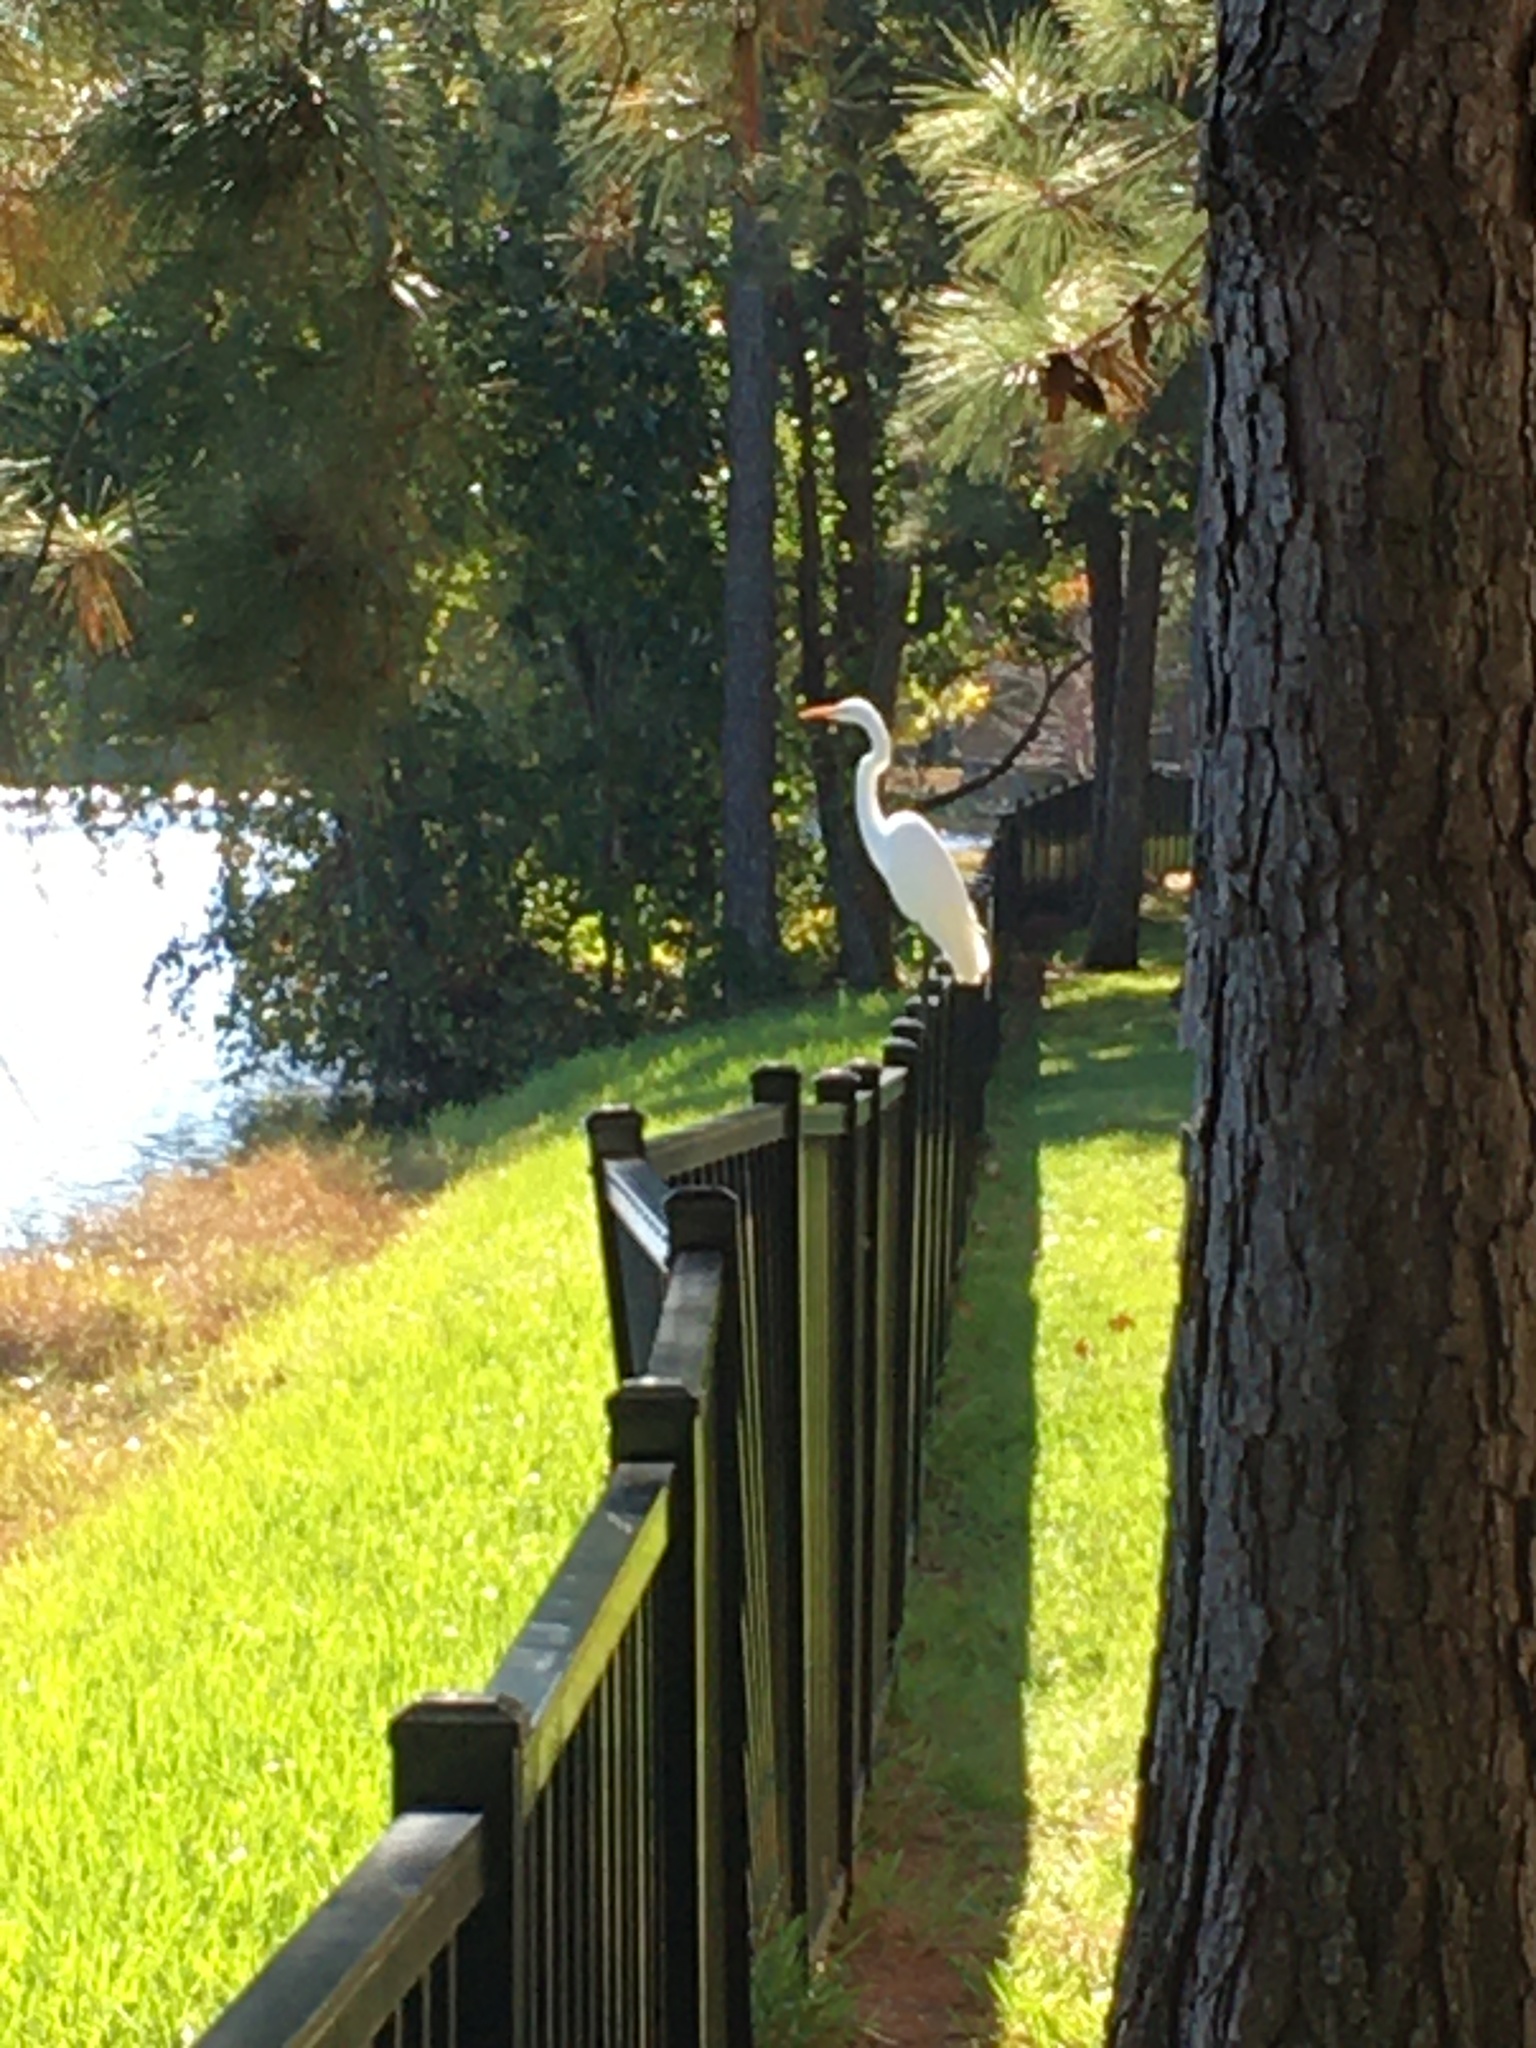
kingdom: Animalia
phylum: Chordata
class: Aves
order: Pelecaniformes
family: Ardeidae
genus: Ardea
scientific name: Ardea alba
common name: Great egret
